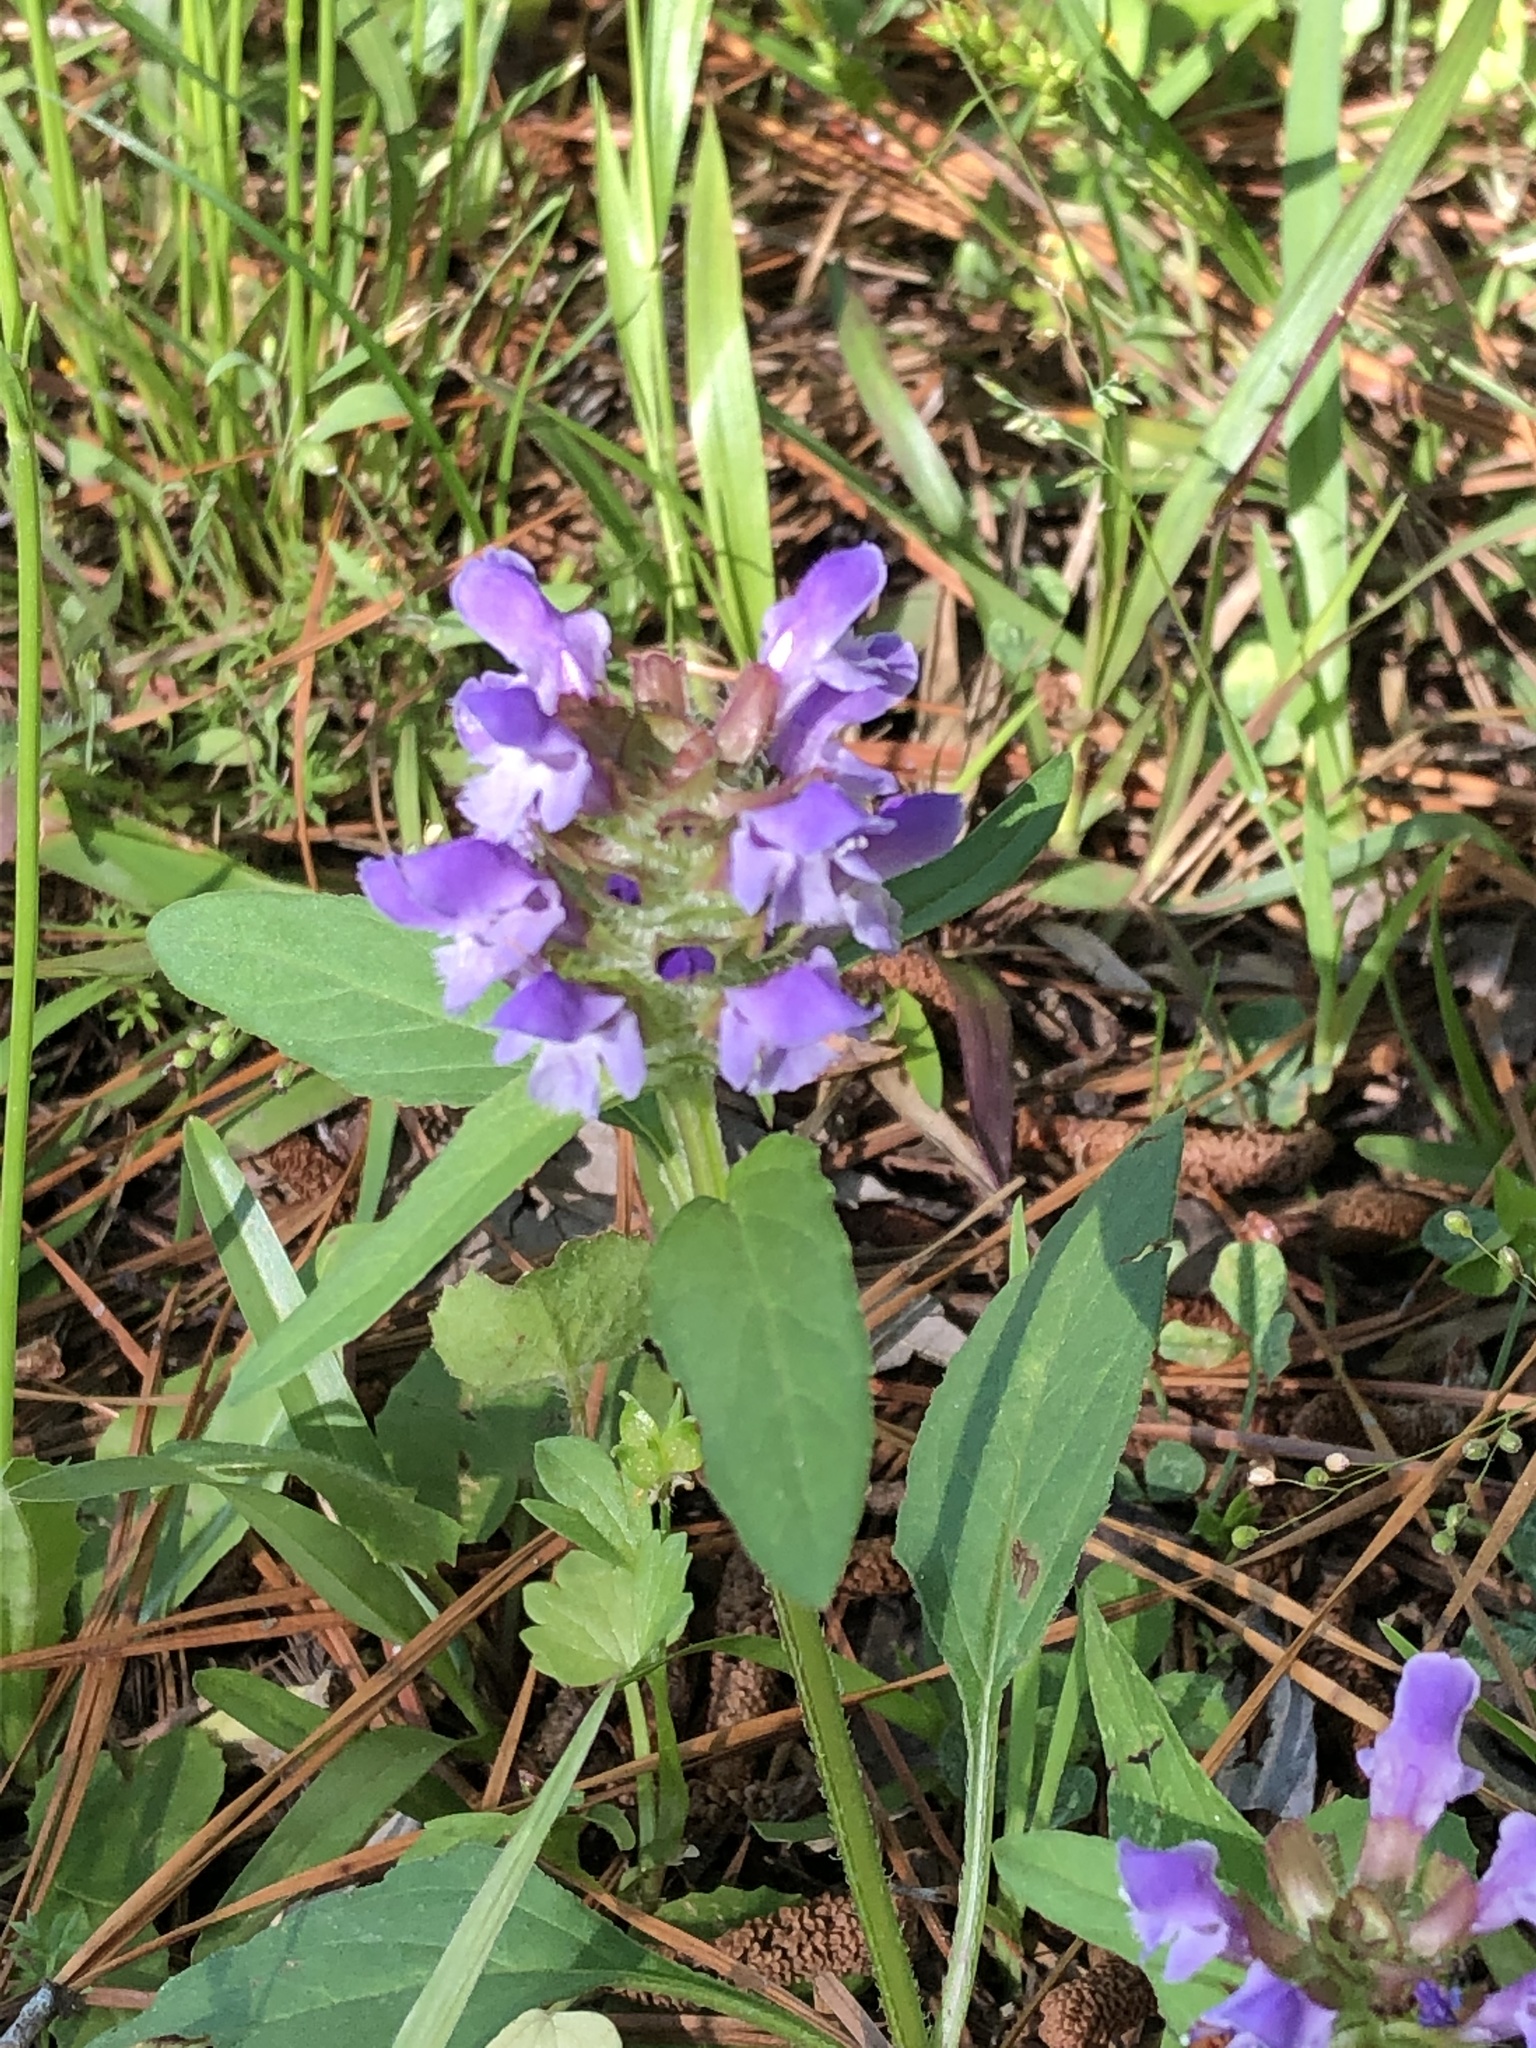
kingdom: Plantae
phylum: Tracheophyta
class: Magnoliopsida
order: Lamiales
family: Lamiaceae
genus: Prunella
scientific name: Prunella vulgaris
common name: Heal-all
